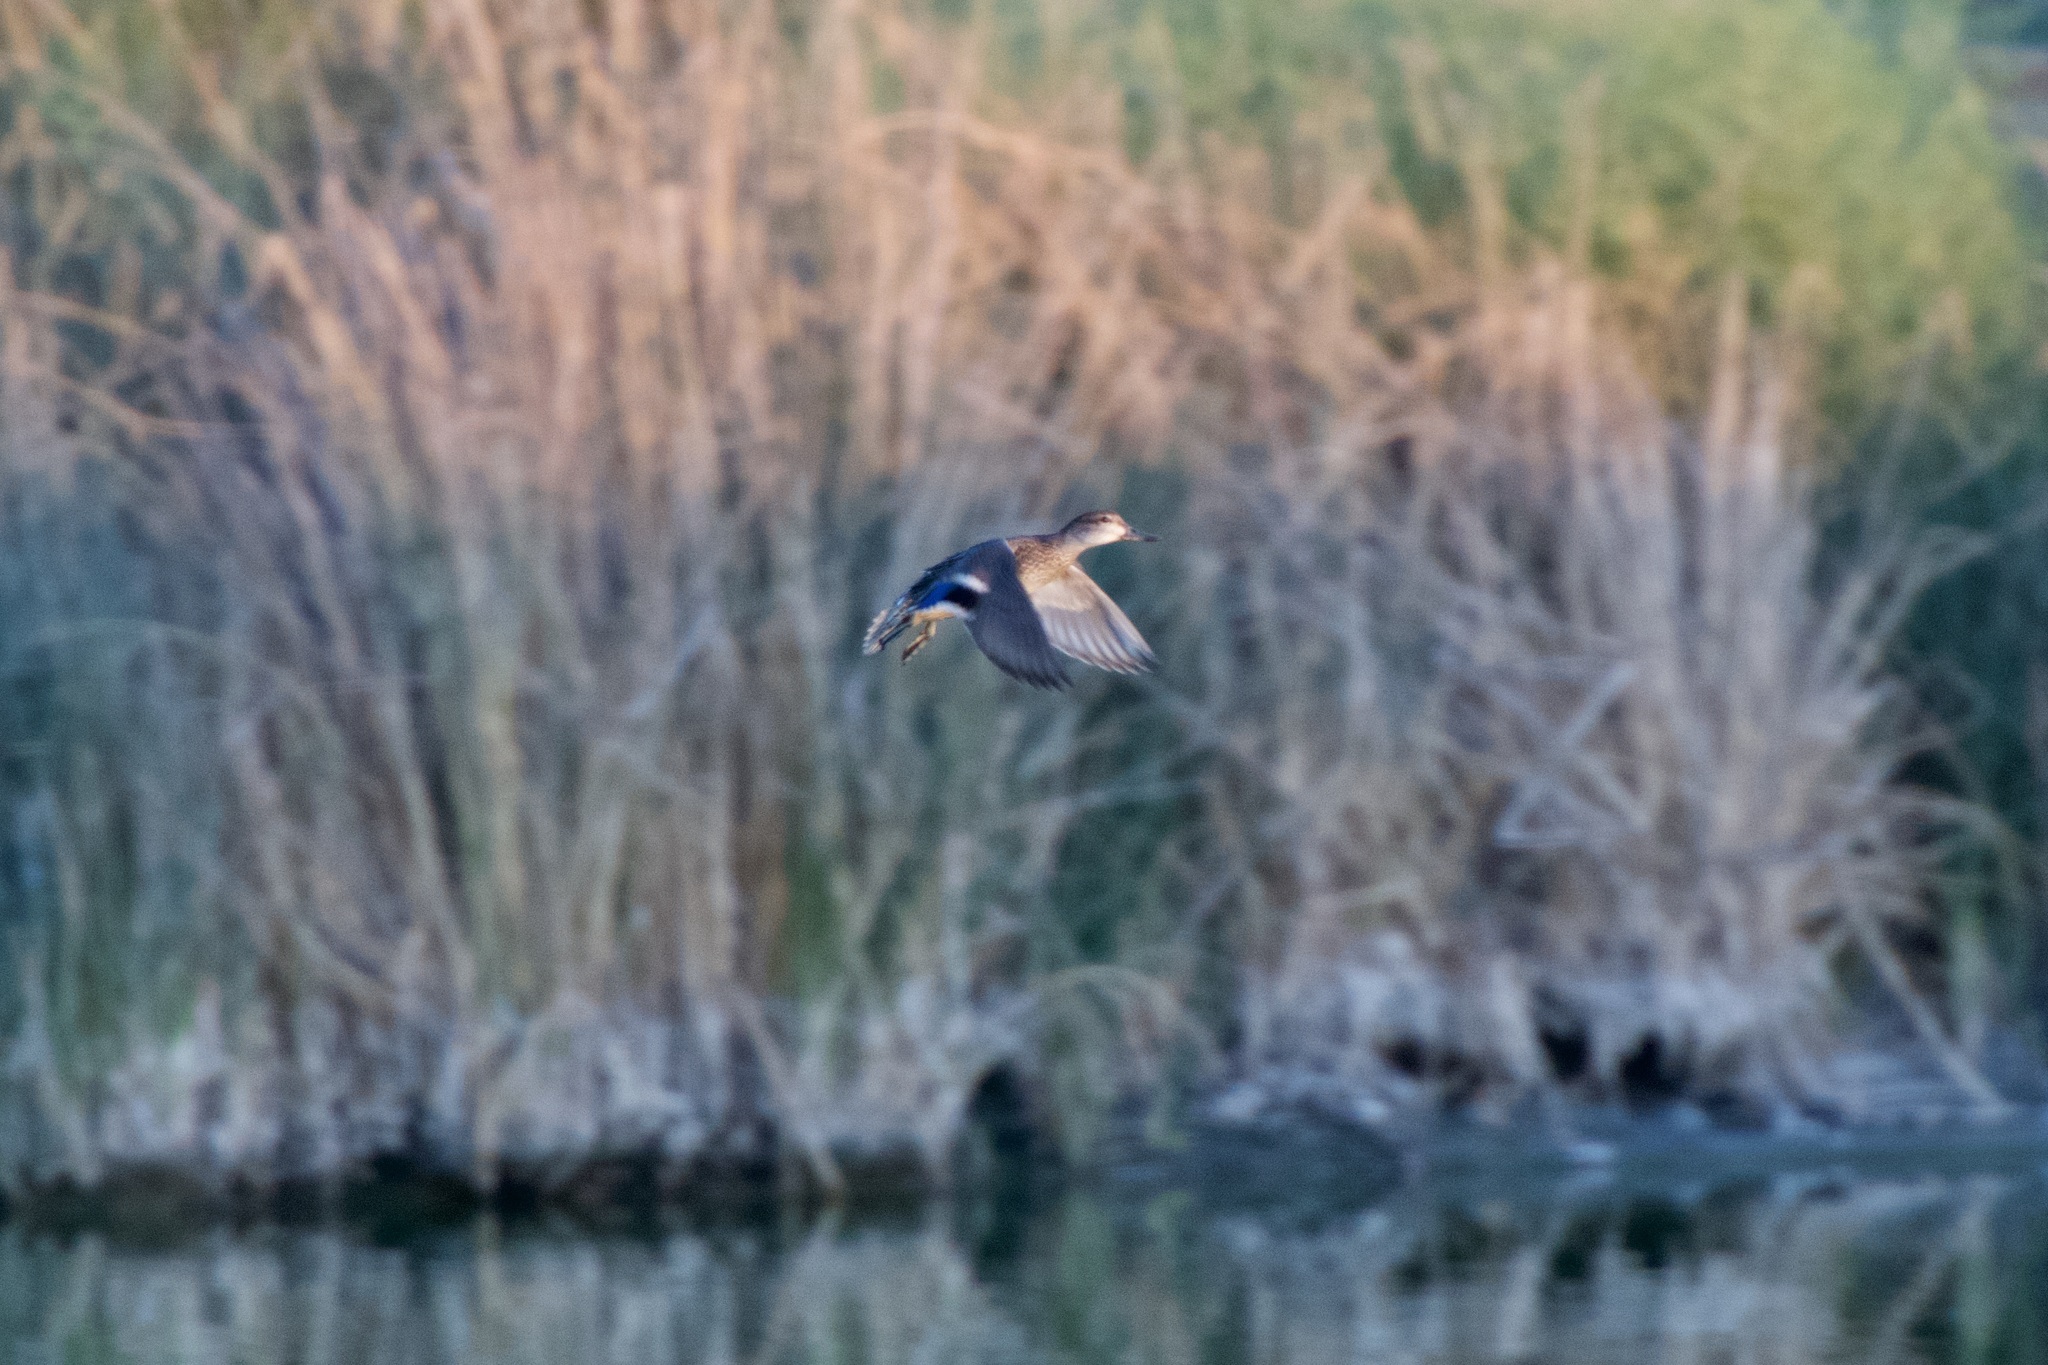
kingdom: Animalia
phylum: Chordata
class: Aves
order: Anseriformes
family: Anatidae
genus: Spatula
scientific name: Spatula discors
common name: Blue-winged teal
